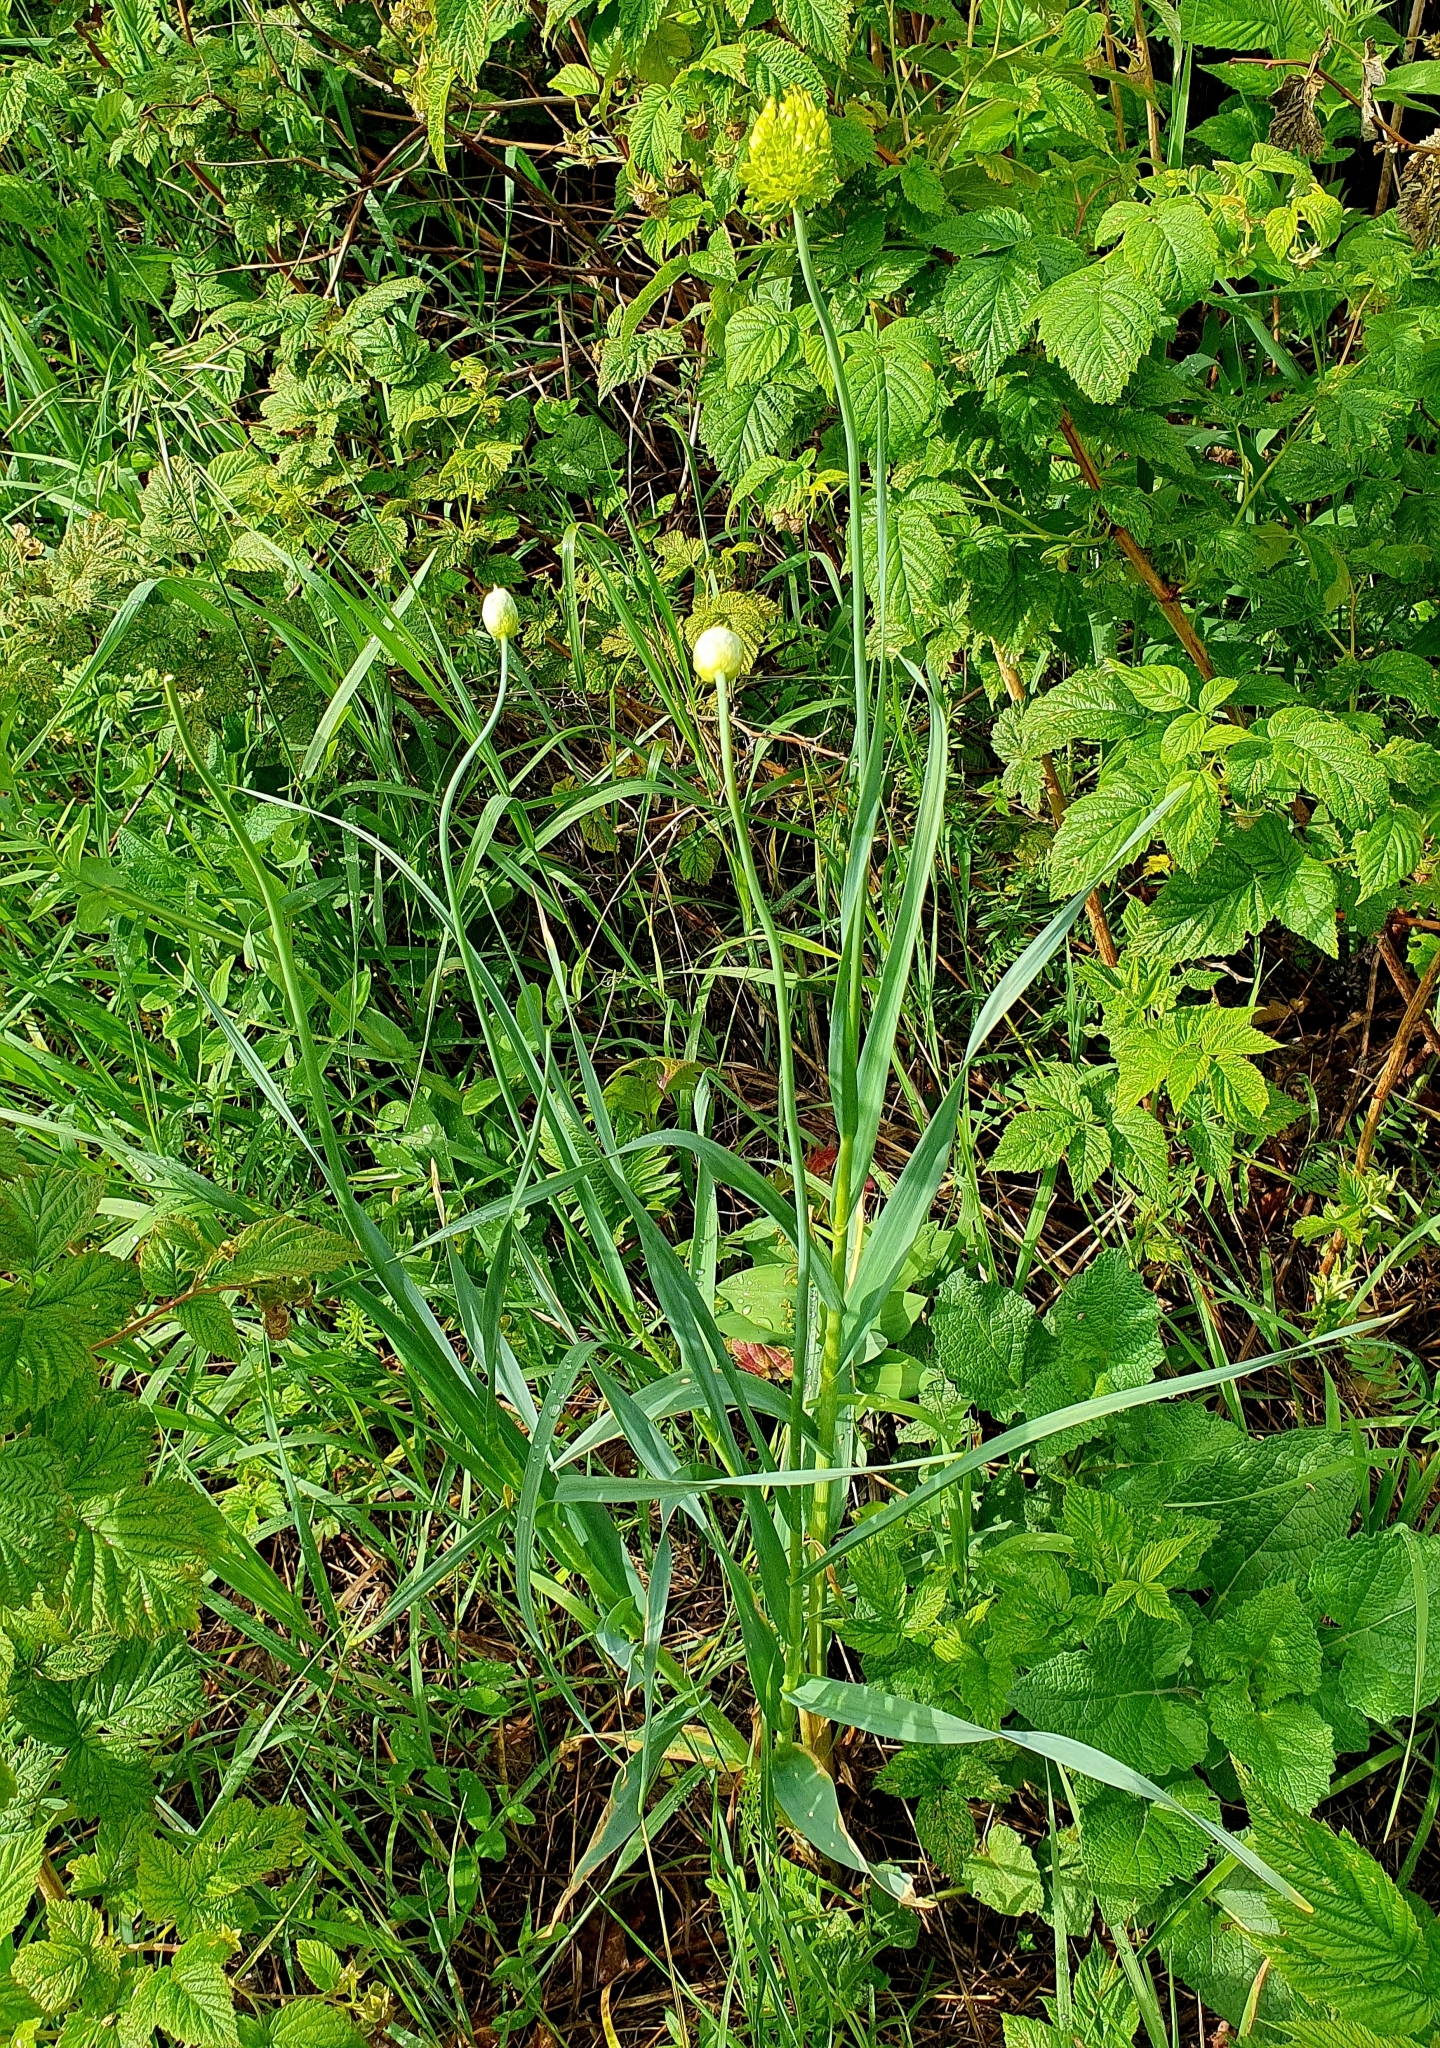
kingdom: Plantae
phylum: Tracheophyta
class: Liliopsida
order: Asparagales
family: Amaryllidaceae
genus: Allium
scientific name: Allium obliquum
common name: Oblique onion
